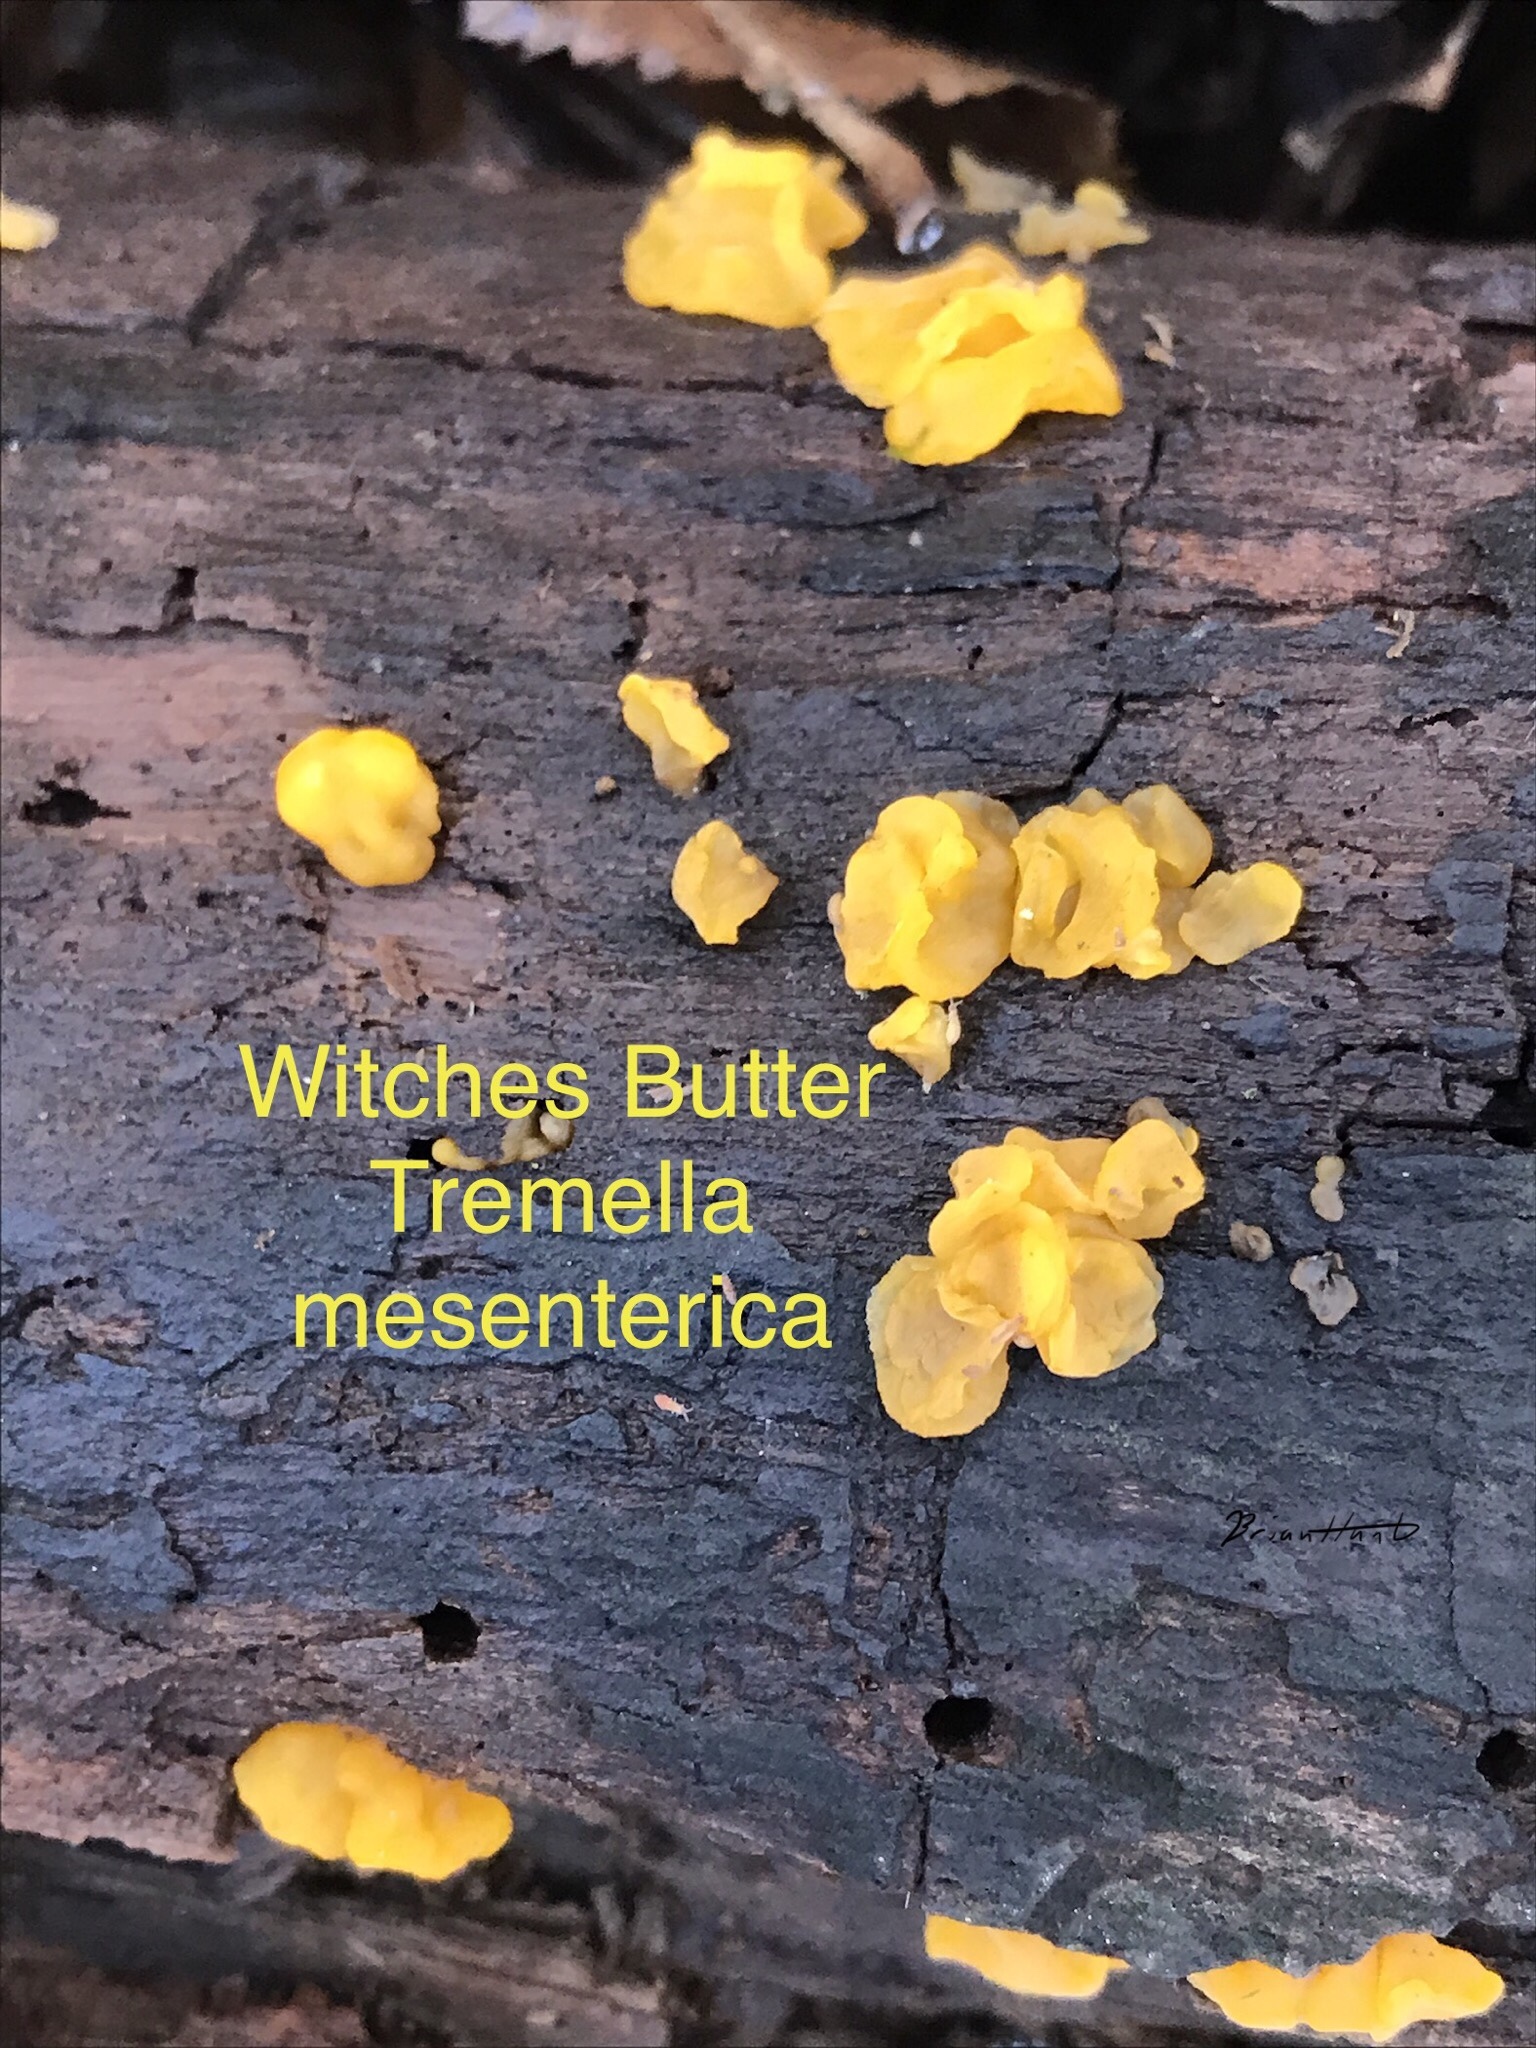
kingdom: Fungi
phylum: Basidiomycota
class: Tremellomycetes
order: Tremellales
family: Tremellaceae
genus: Tremella
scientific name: Tremella mesenterica
